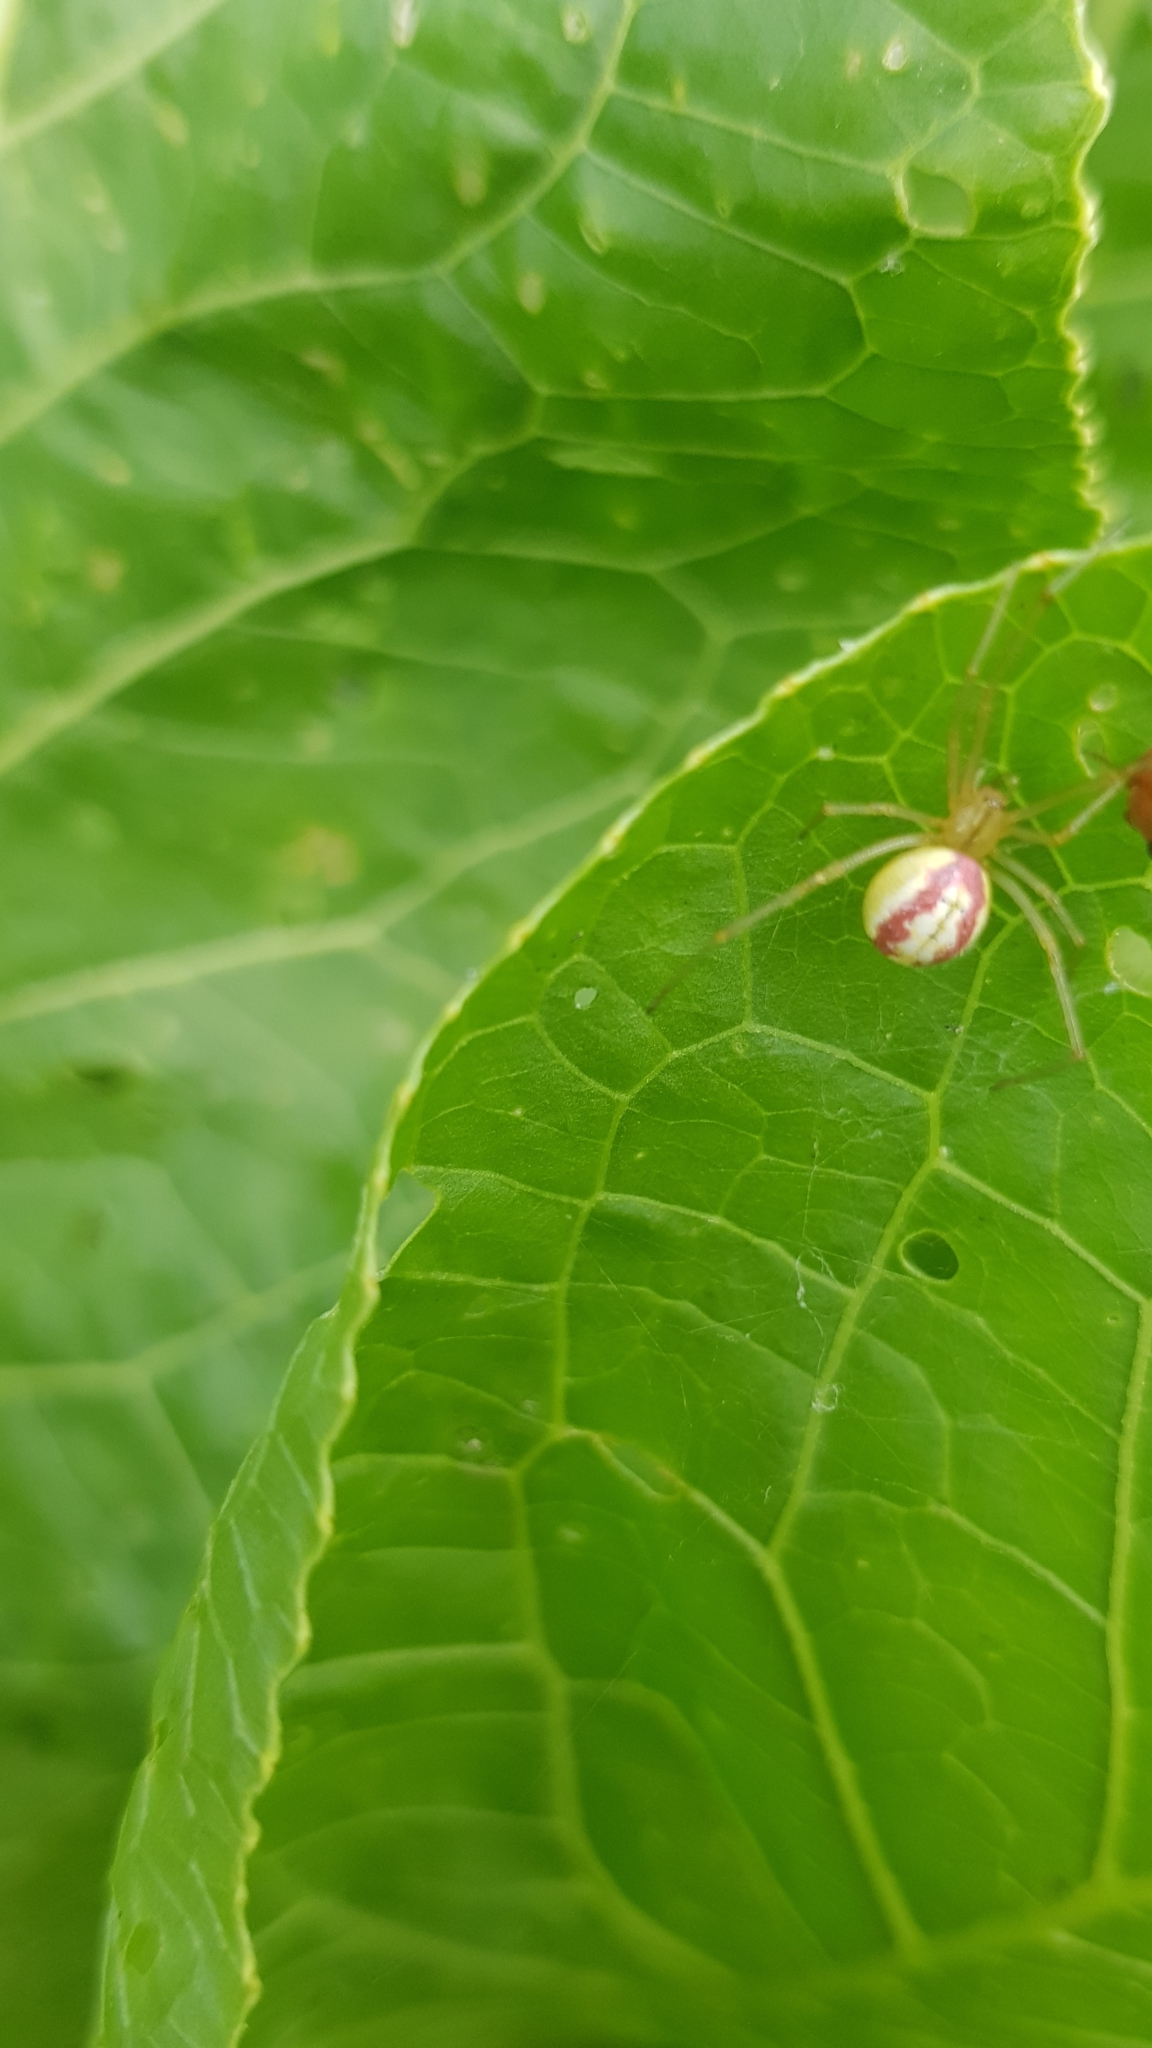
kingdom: Animalia
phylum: Arthropoda
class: Arachnida
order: Araneae
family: Theridiidae
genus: Enoplognatha
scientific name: Enoplognatha
